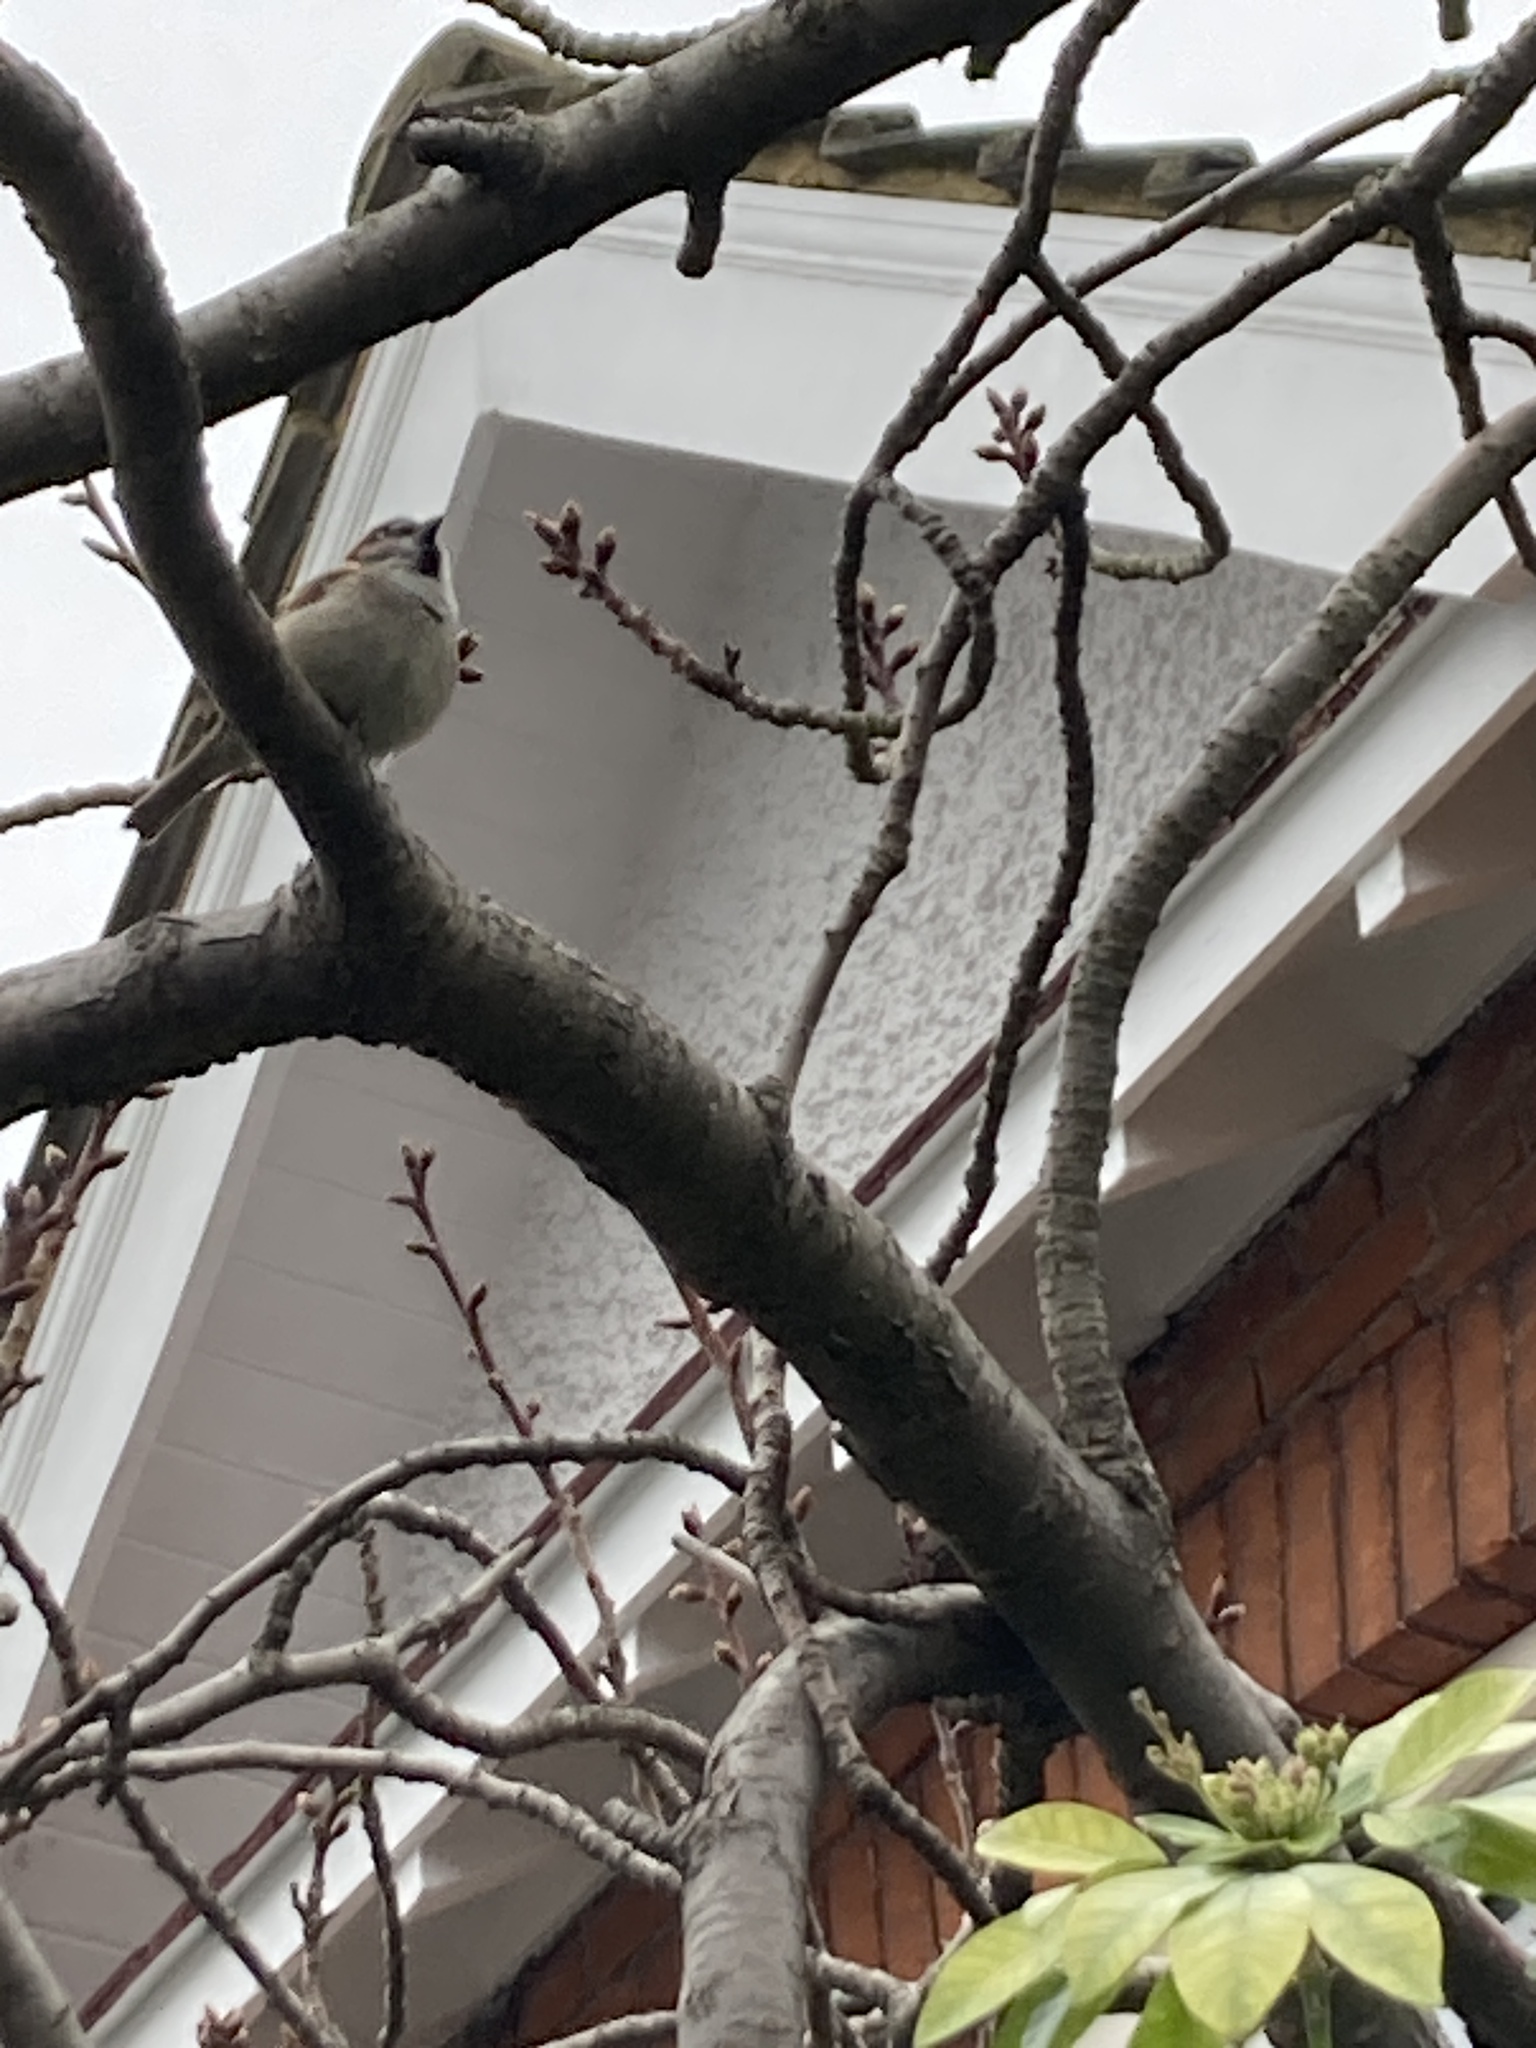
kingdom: Animalia
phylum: Chordata
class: Aves
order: Passeriformes
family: Passeridae
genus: Passer
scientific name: Passer domesticus
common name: House sparrow
